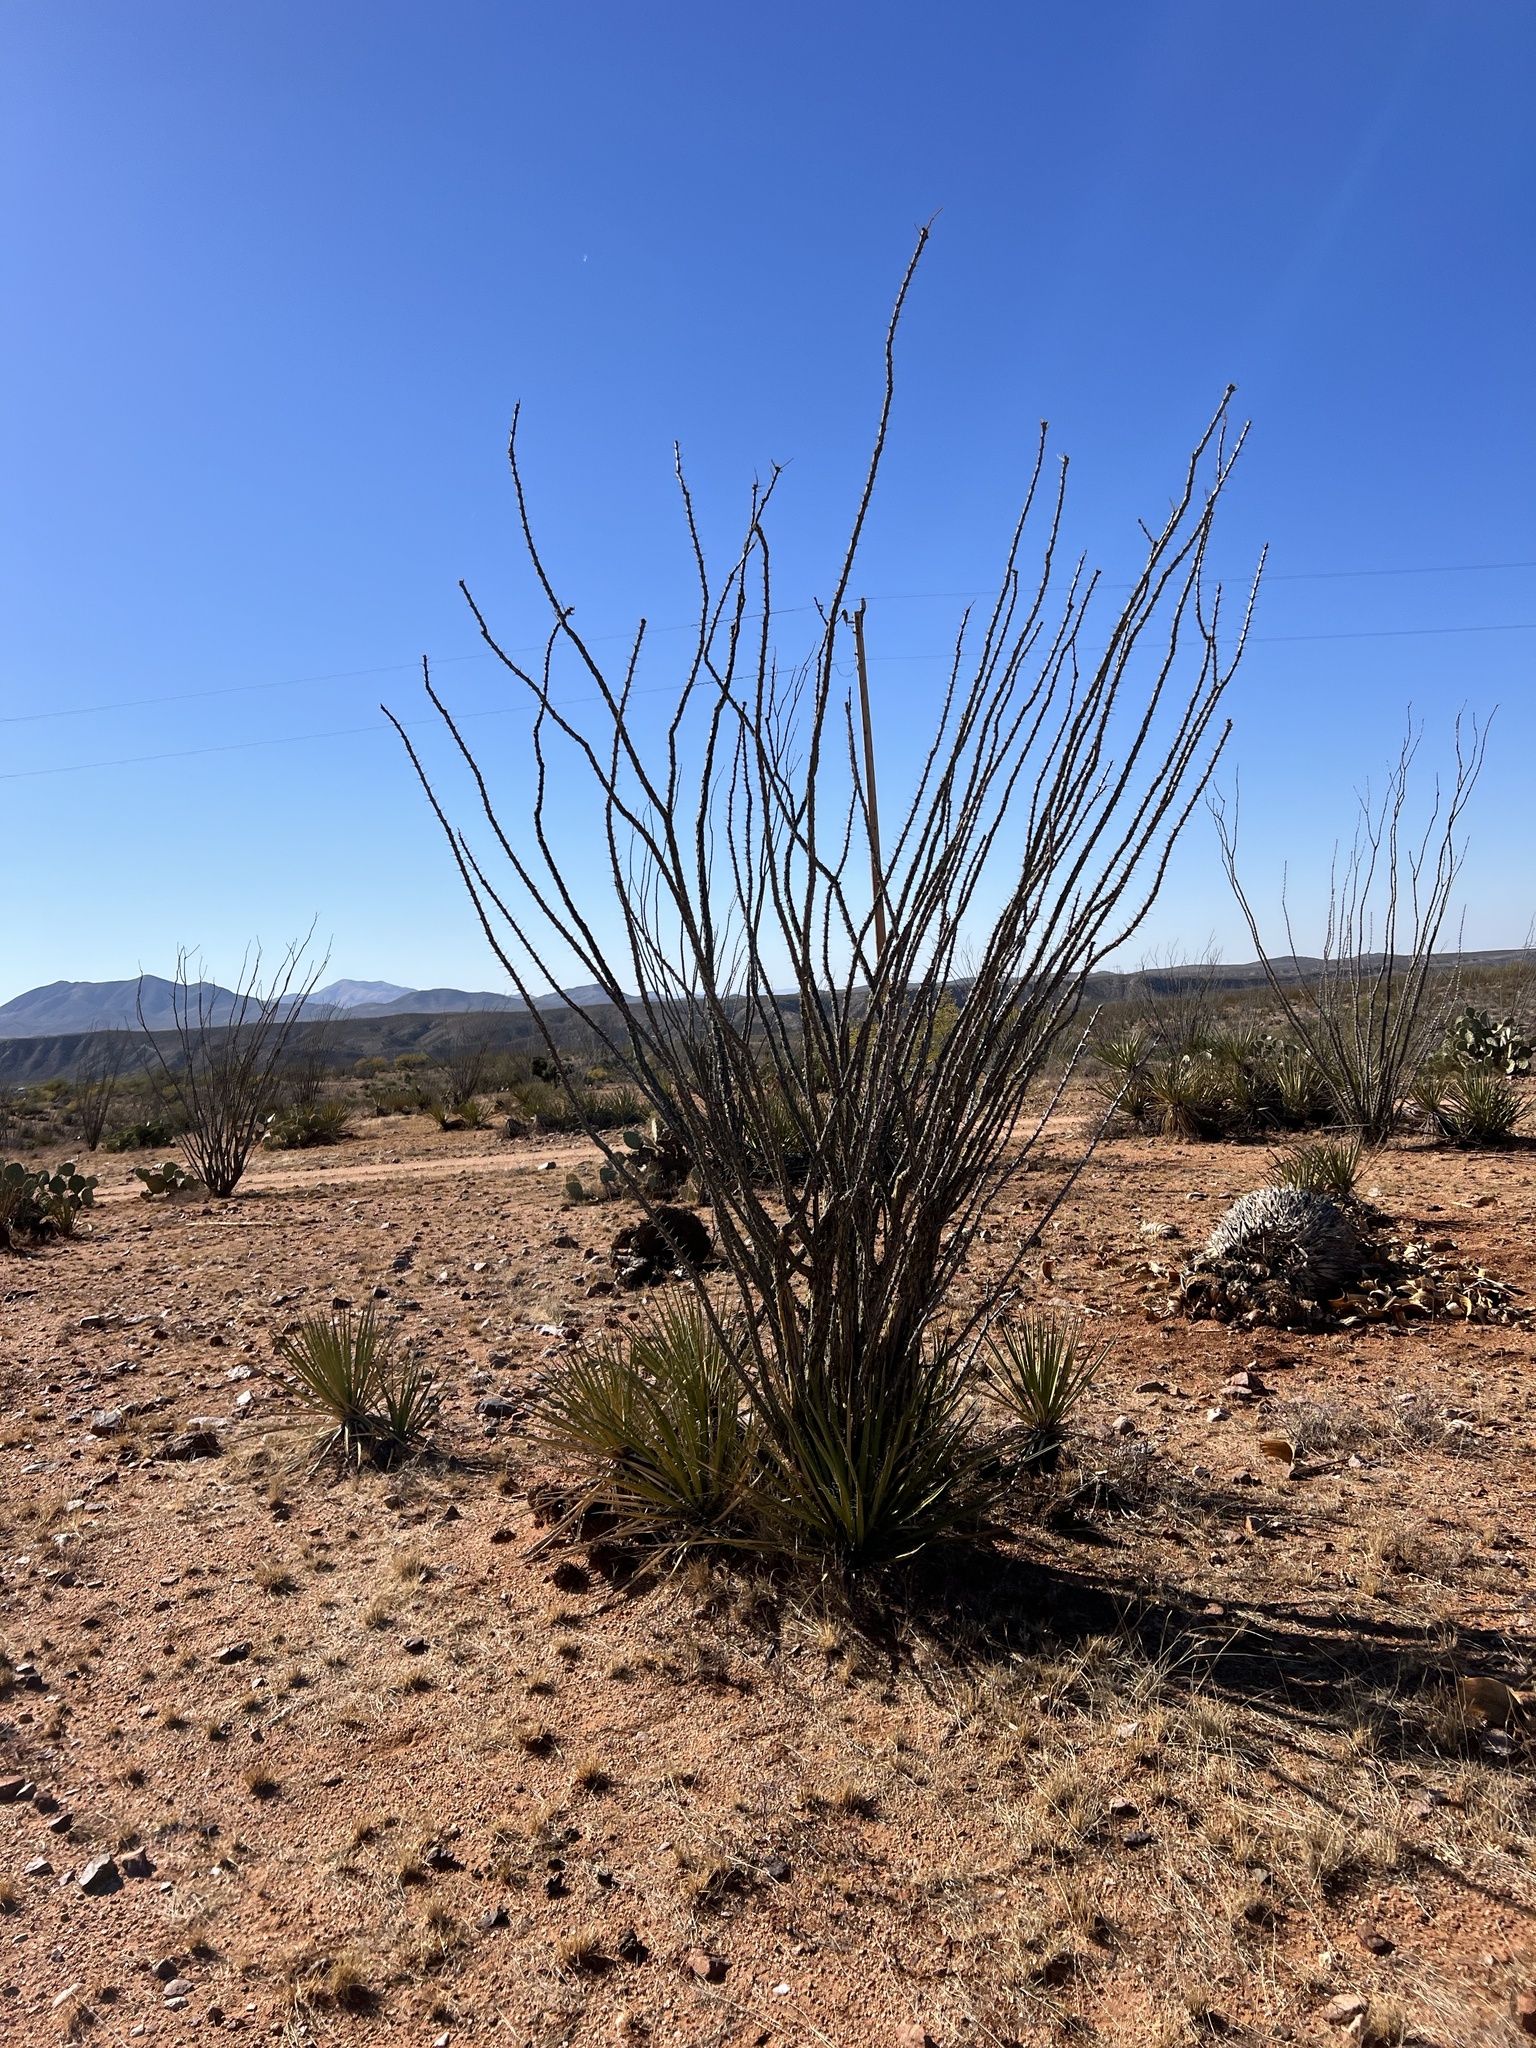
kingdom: Plantae
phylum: Tracheophyta
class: Magnoliopsida
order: Ericales
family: Fouquieriaceae
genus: Fouquieria
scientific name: Fouquieria splendens
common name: Vine-cactus
